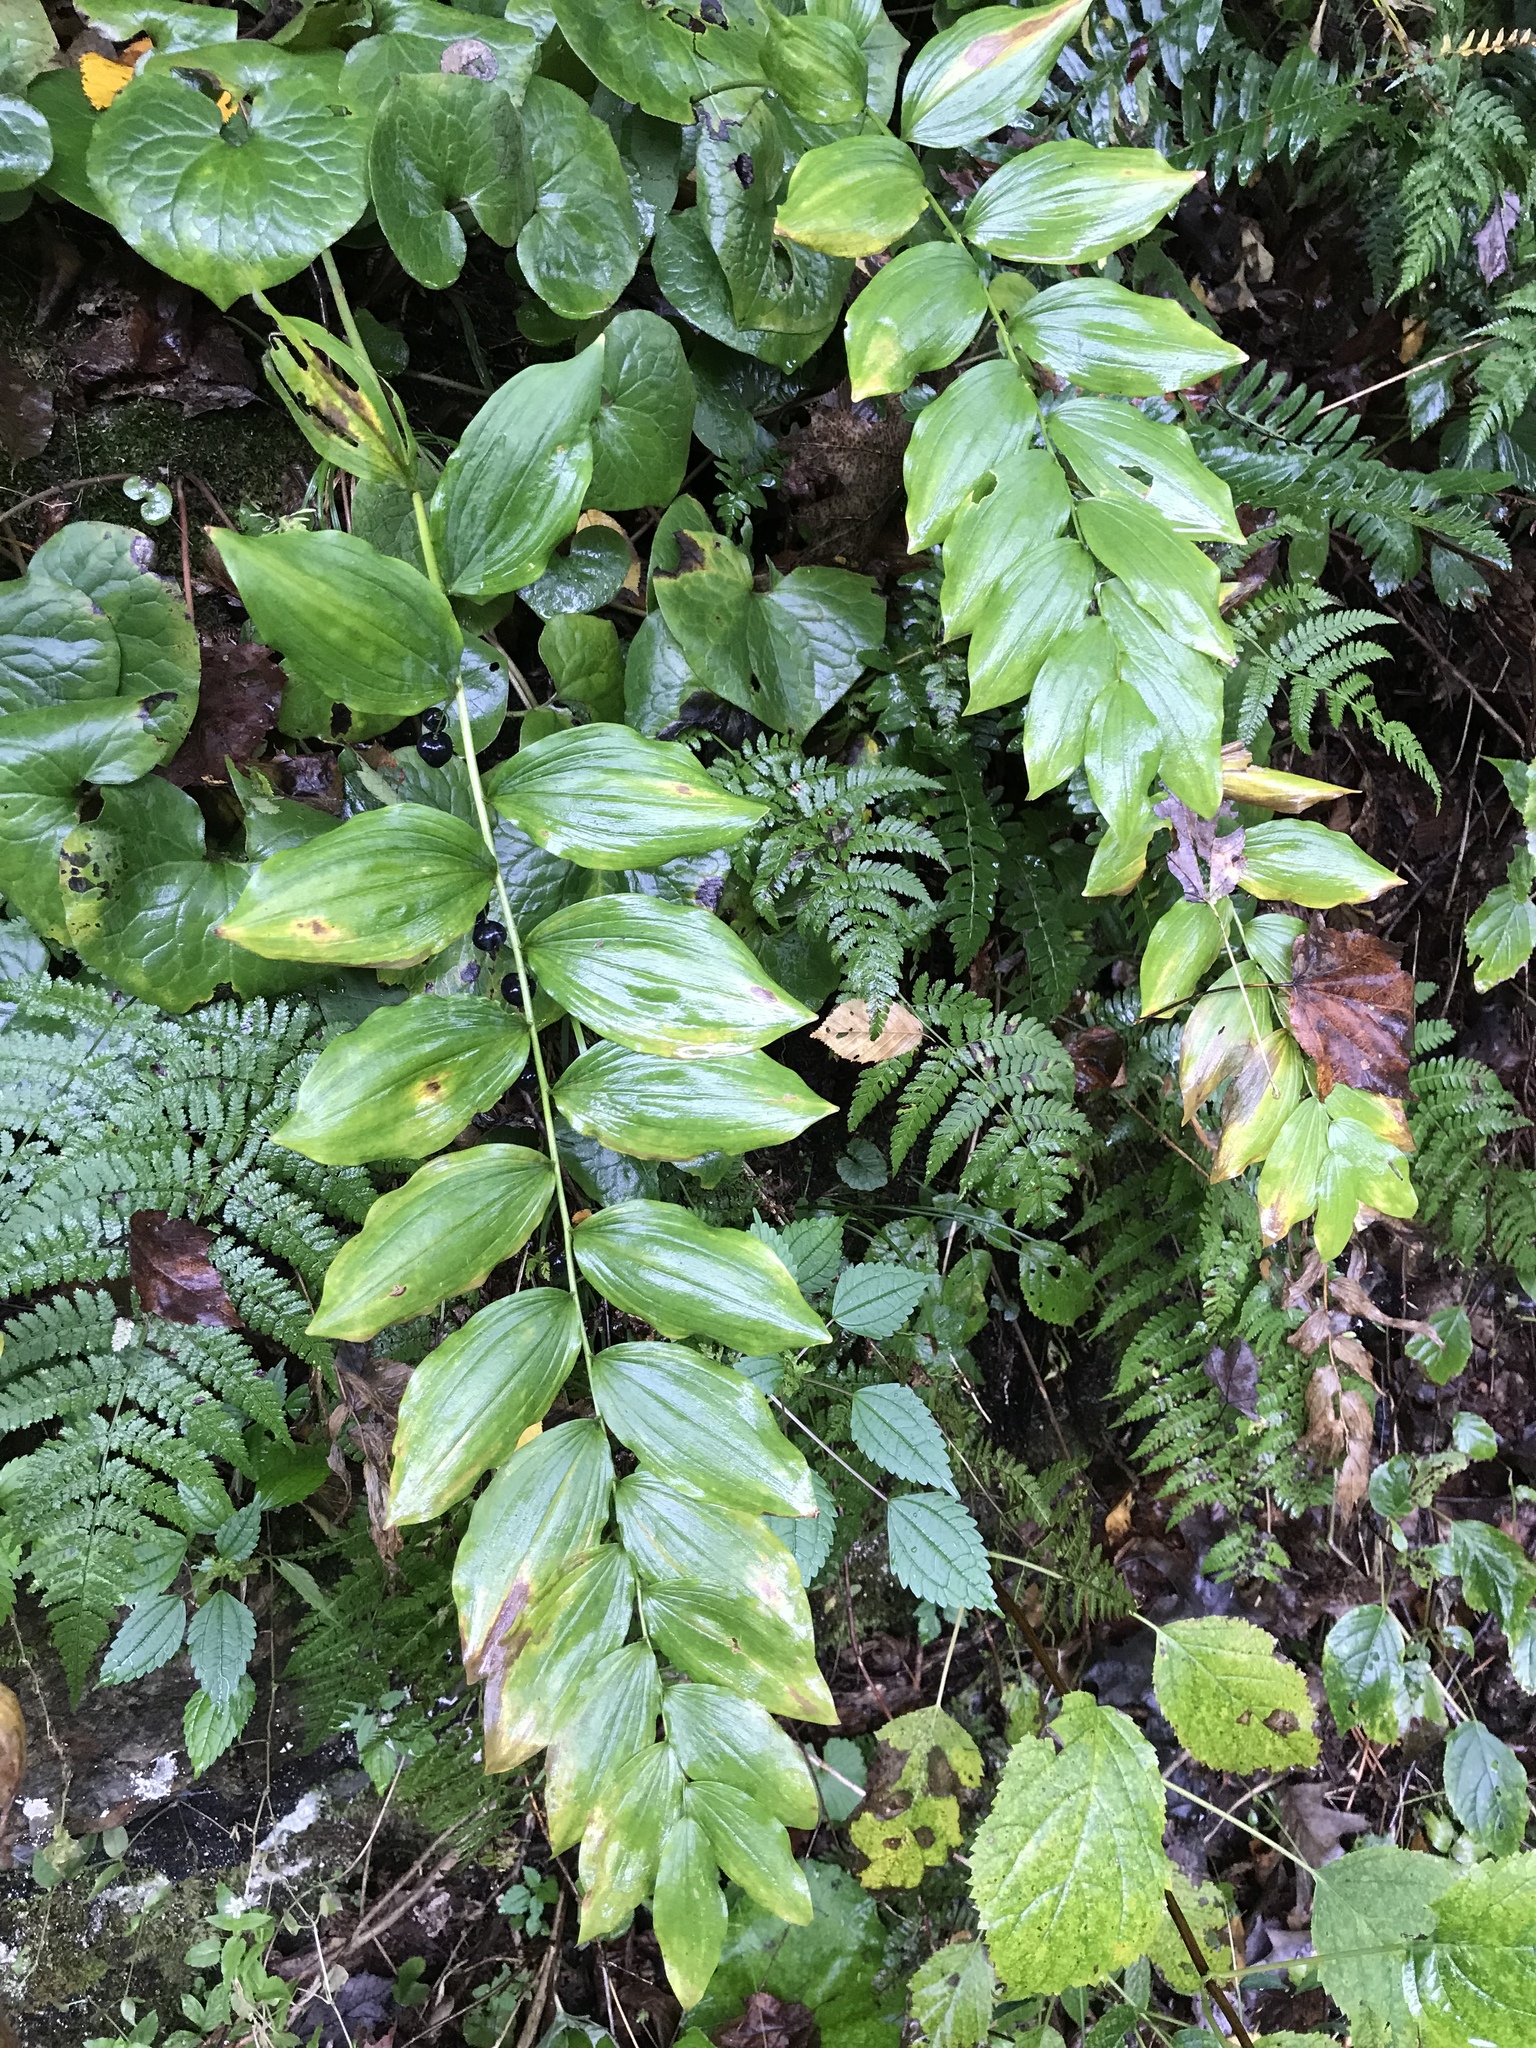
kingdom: Plantae
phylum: Tracheophyta
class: Liliopsida
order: Asparagales
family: Asparagaceae
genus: Polygonatum
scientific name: Polygonatum pubescens
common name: Downy solomon's seal
